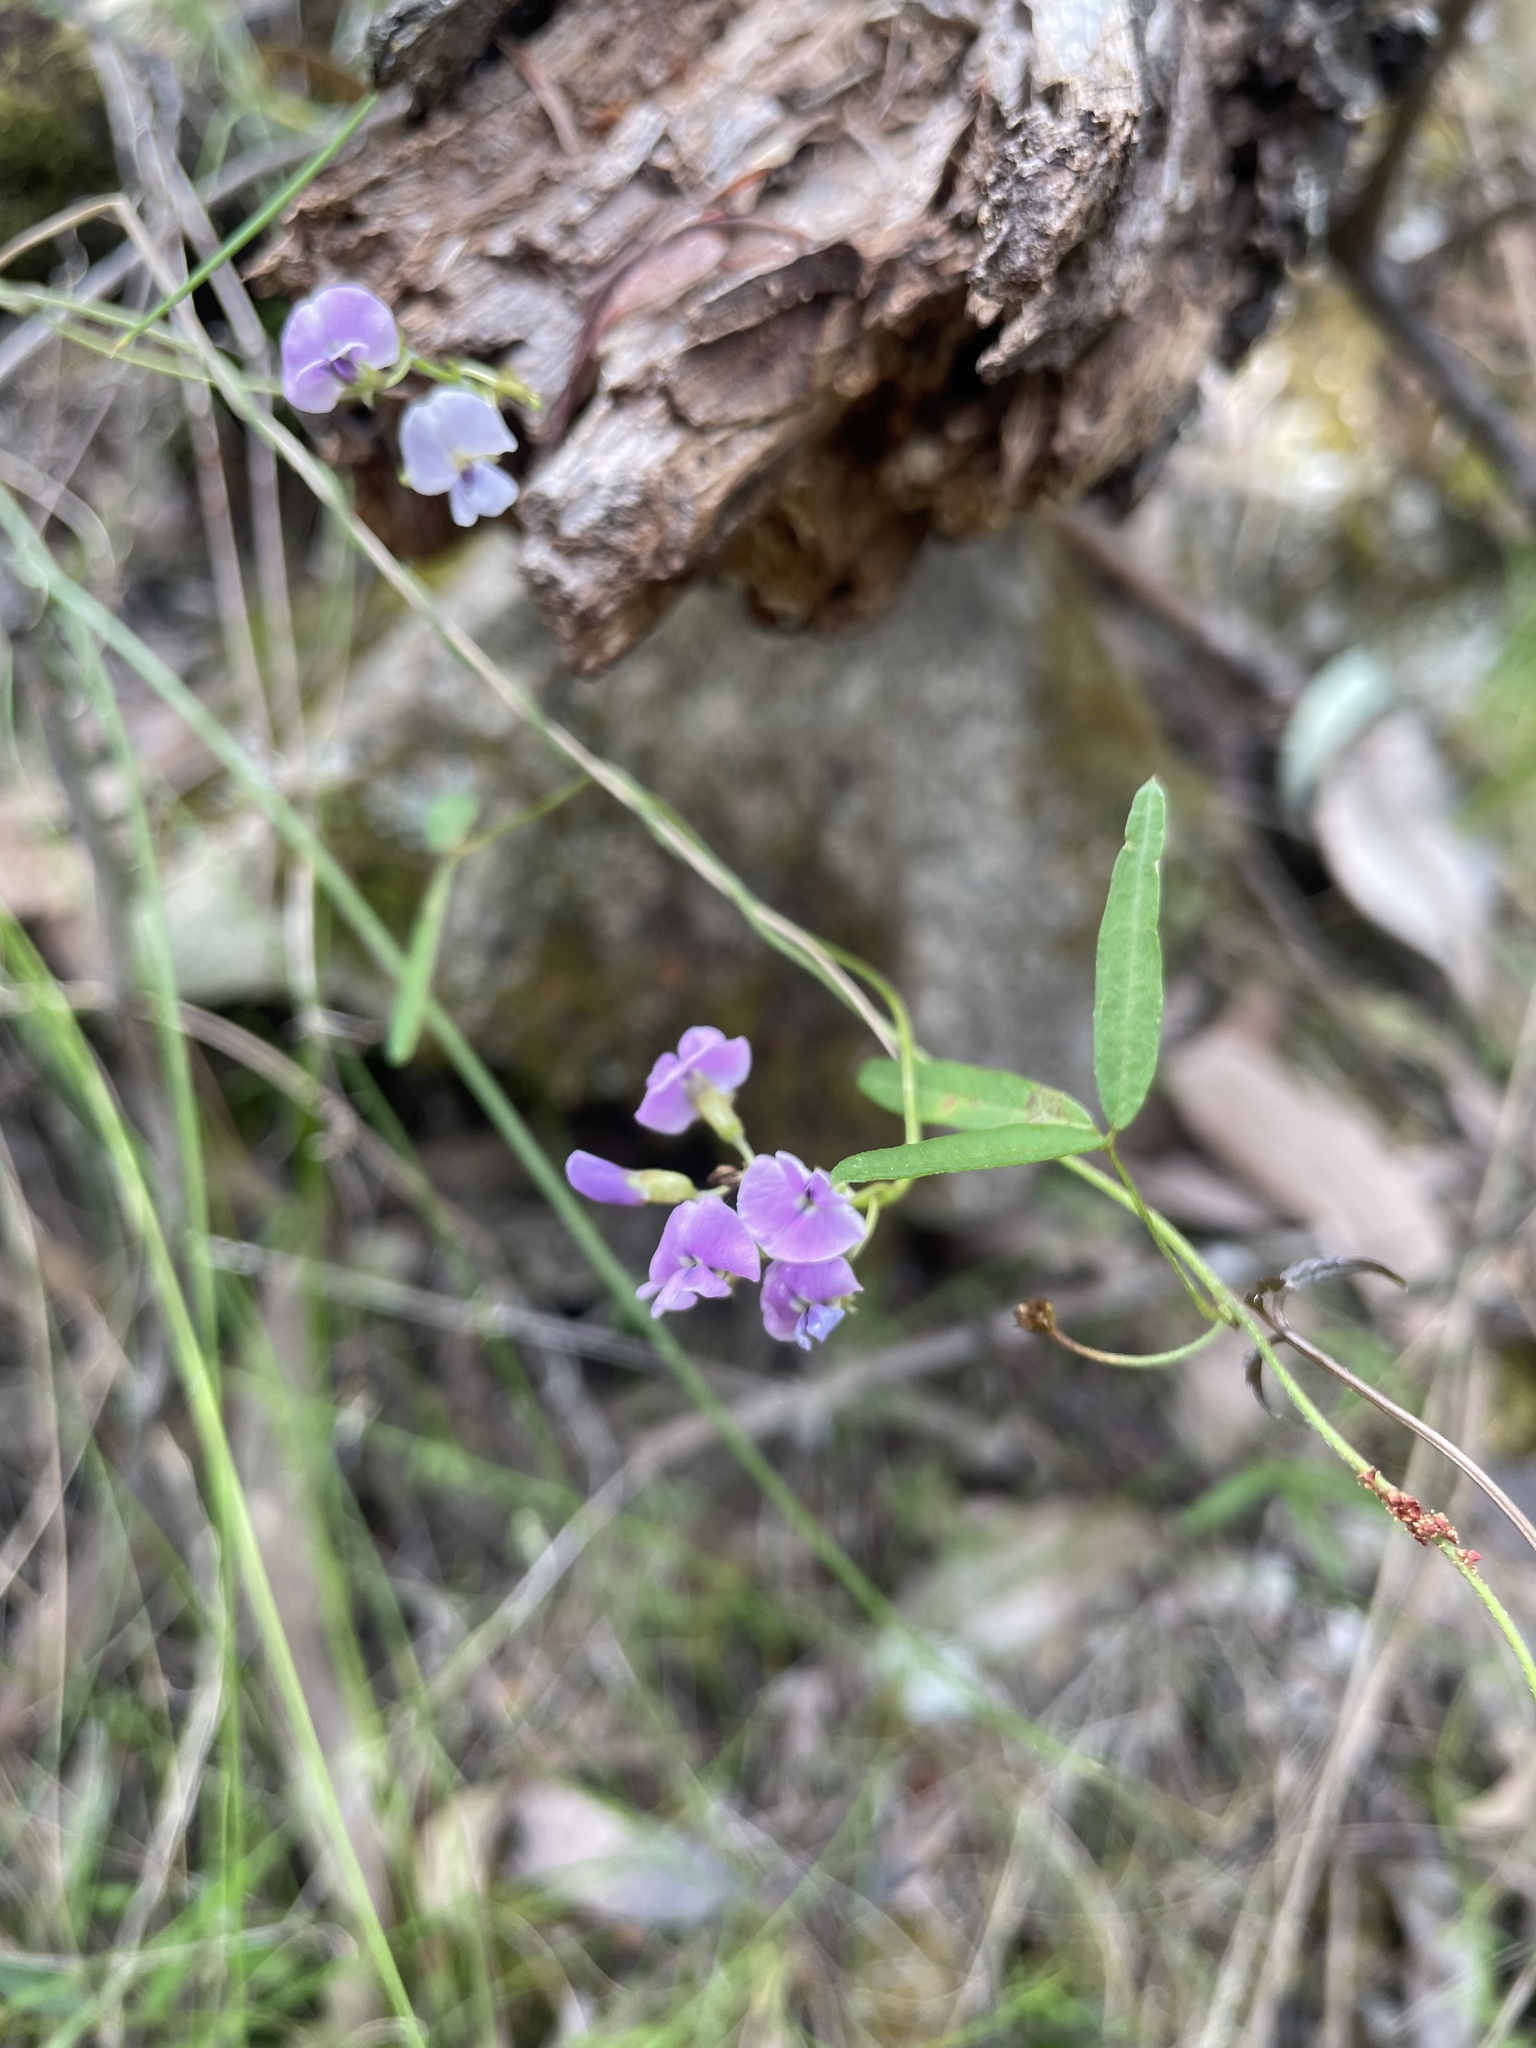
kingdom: Plantae
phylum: Tracheophyta
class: Magnoliopsida
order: Fabales
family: Fabaceae
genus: Glycine
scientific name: Glycine clandestina
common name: Twining glycine
